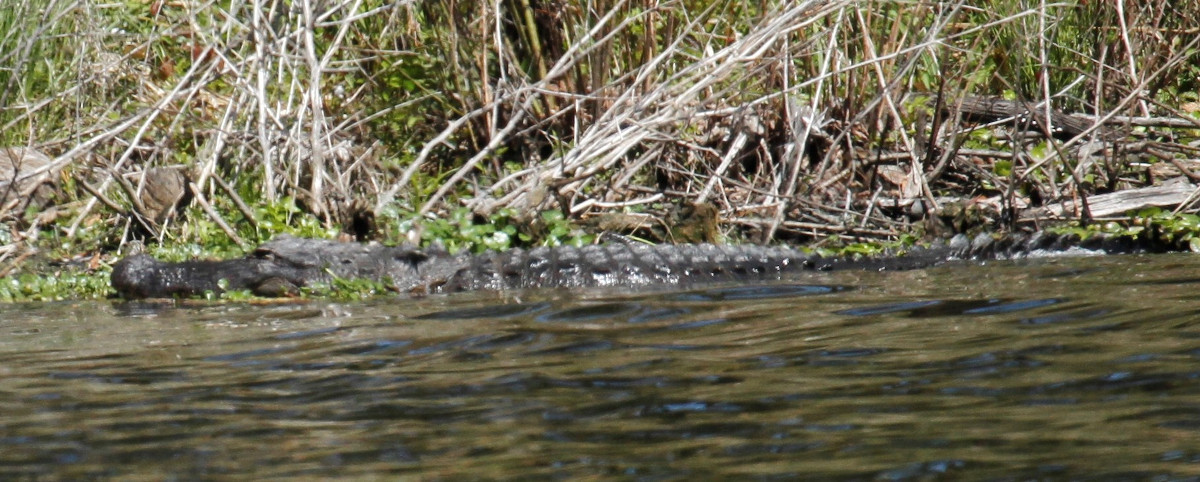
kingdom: Animalia
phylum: Chordata
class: Crocodylia
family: Alligatoridae
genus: Alligator
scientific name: Alligator mississippiensis
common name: American alligator
